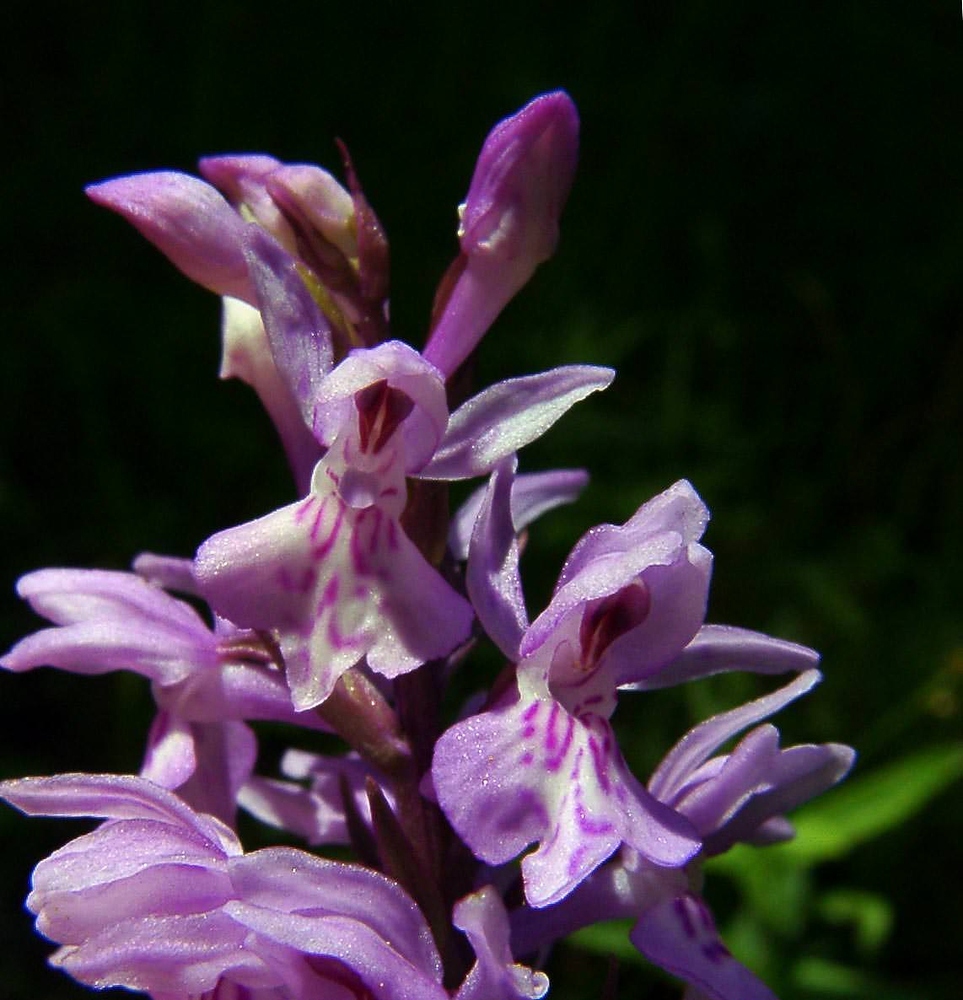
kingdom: Plantae
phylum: Tracheophyta
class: Liliopsida
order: Asparagales
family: Orchidaceae
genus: Dactylorhiza
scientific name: Dactylorhiza maculata
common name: Heath spotted-orchid
